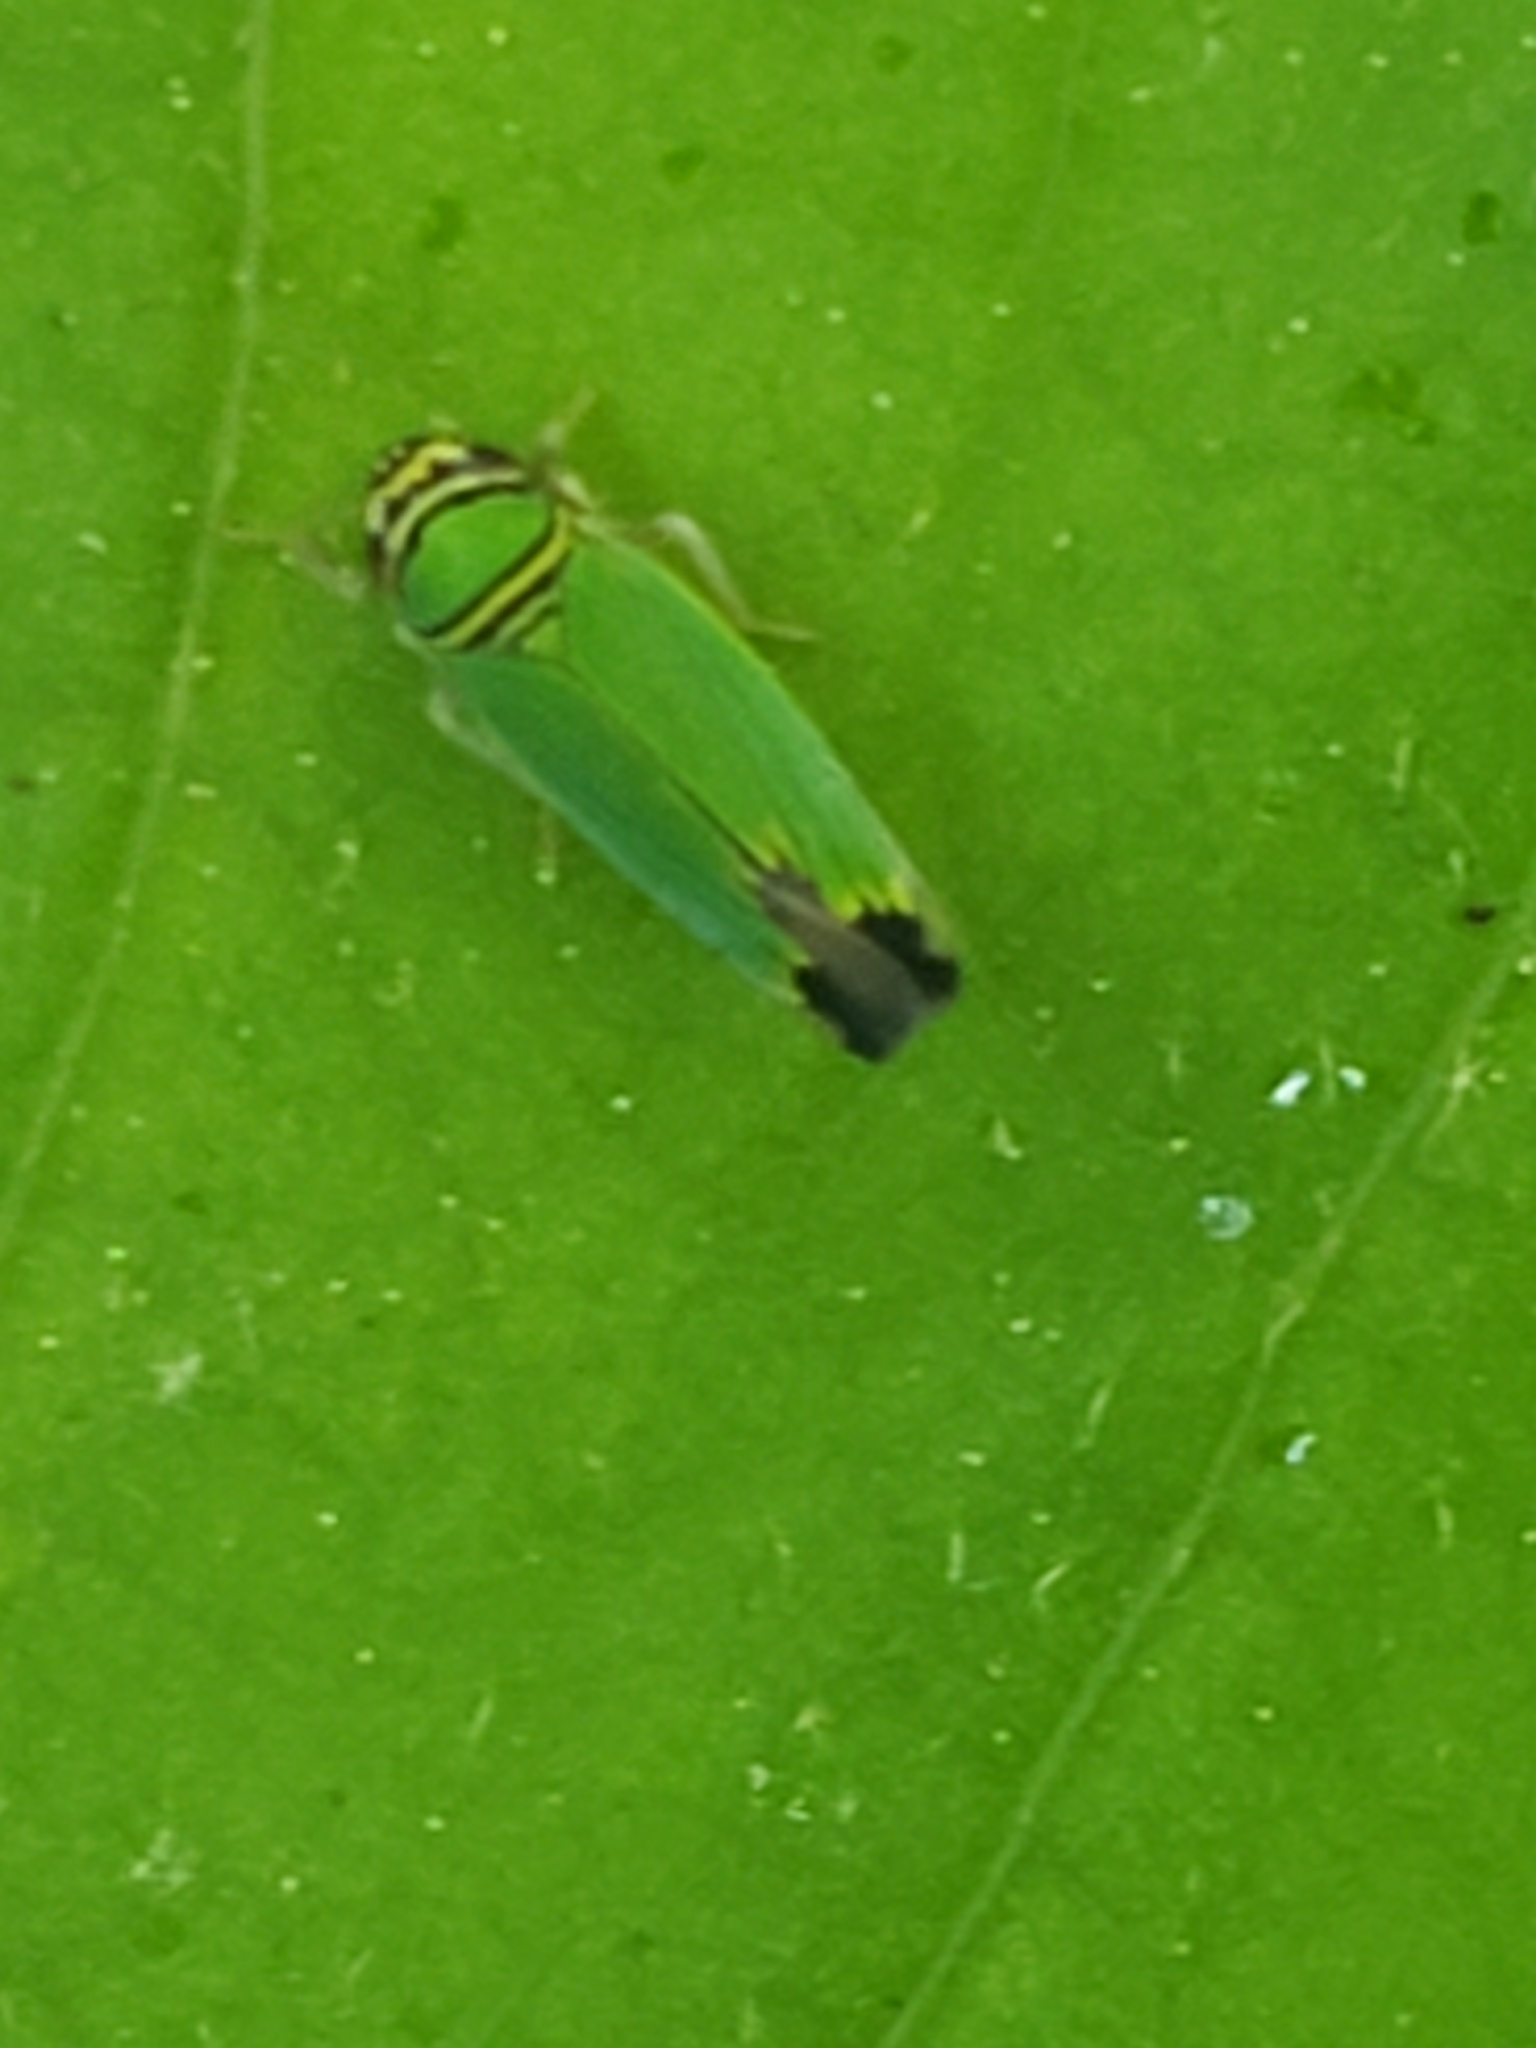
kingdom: Animalia
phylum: Arthropoda
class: Insecta
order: Hemiptera
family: Cicadellidae
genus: Tylozygus
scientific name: Tylozygus geometricus
